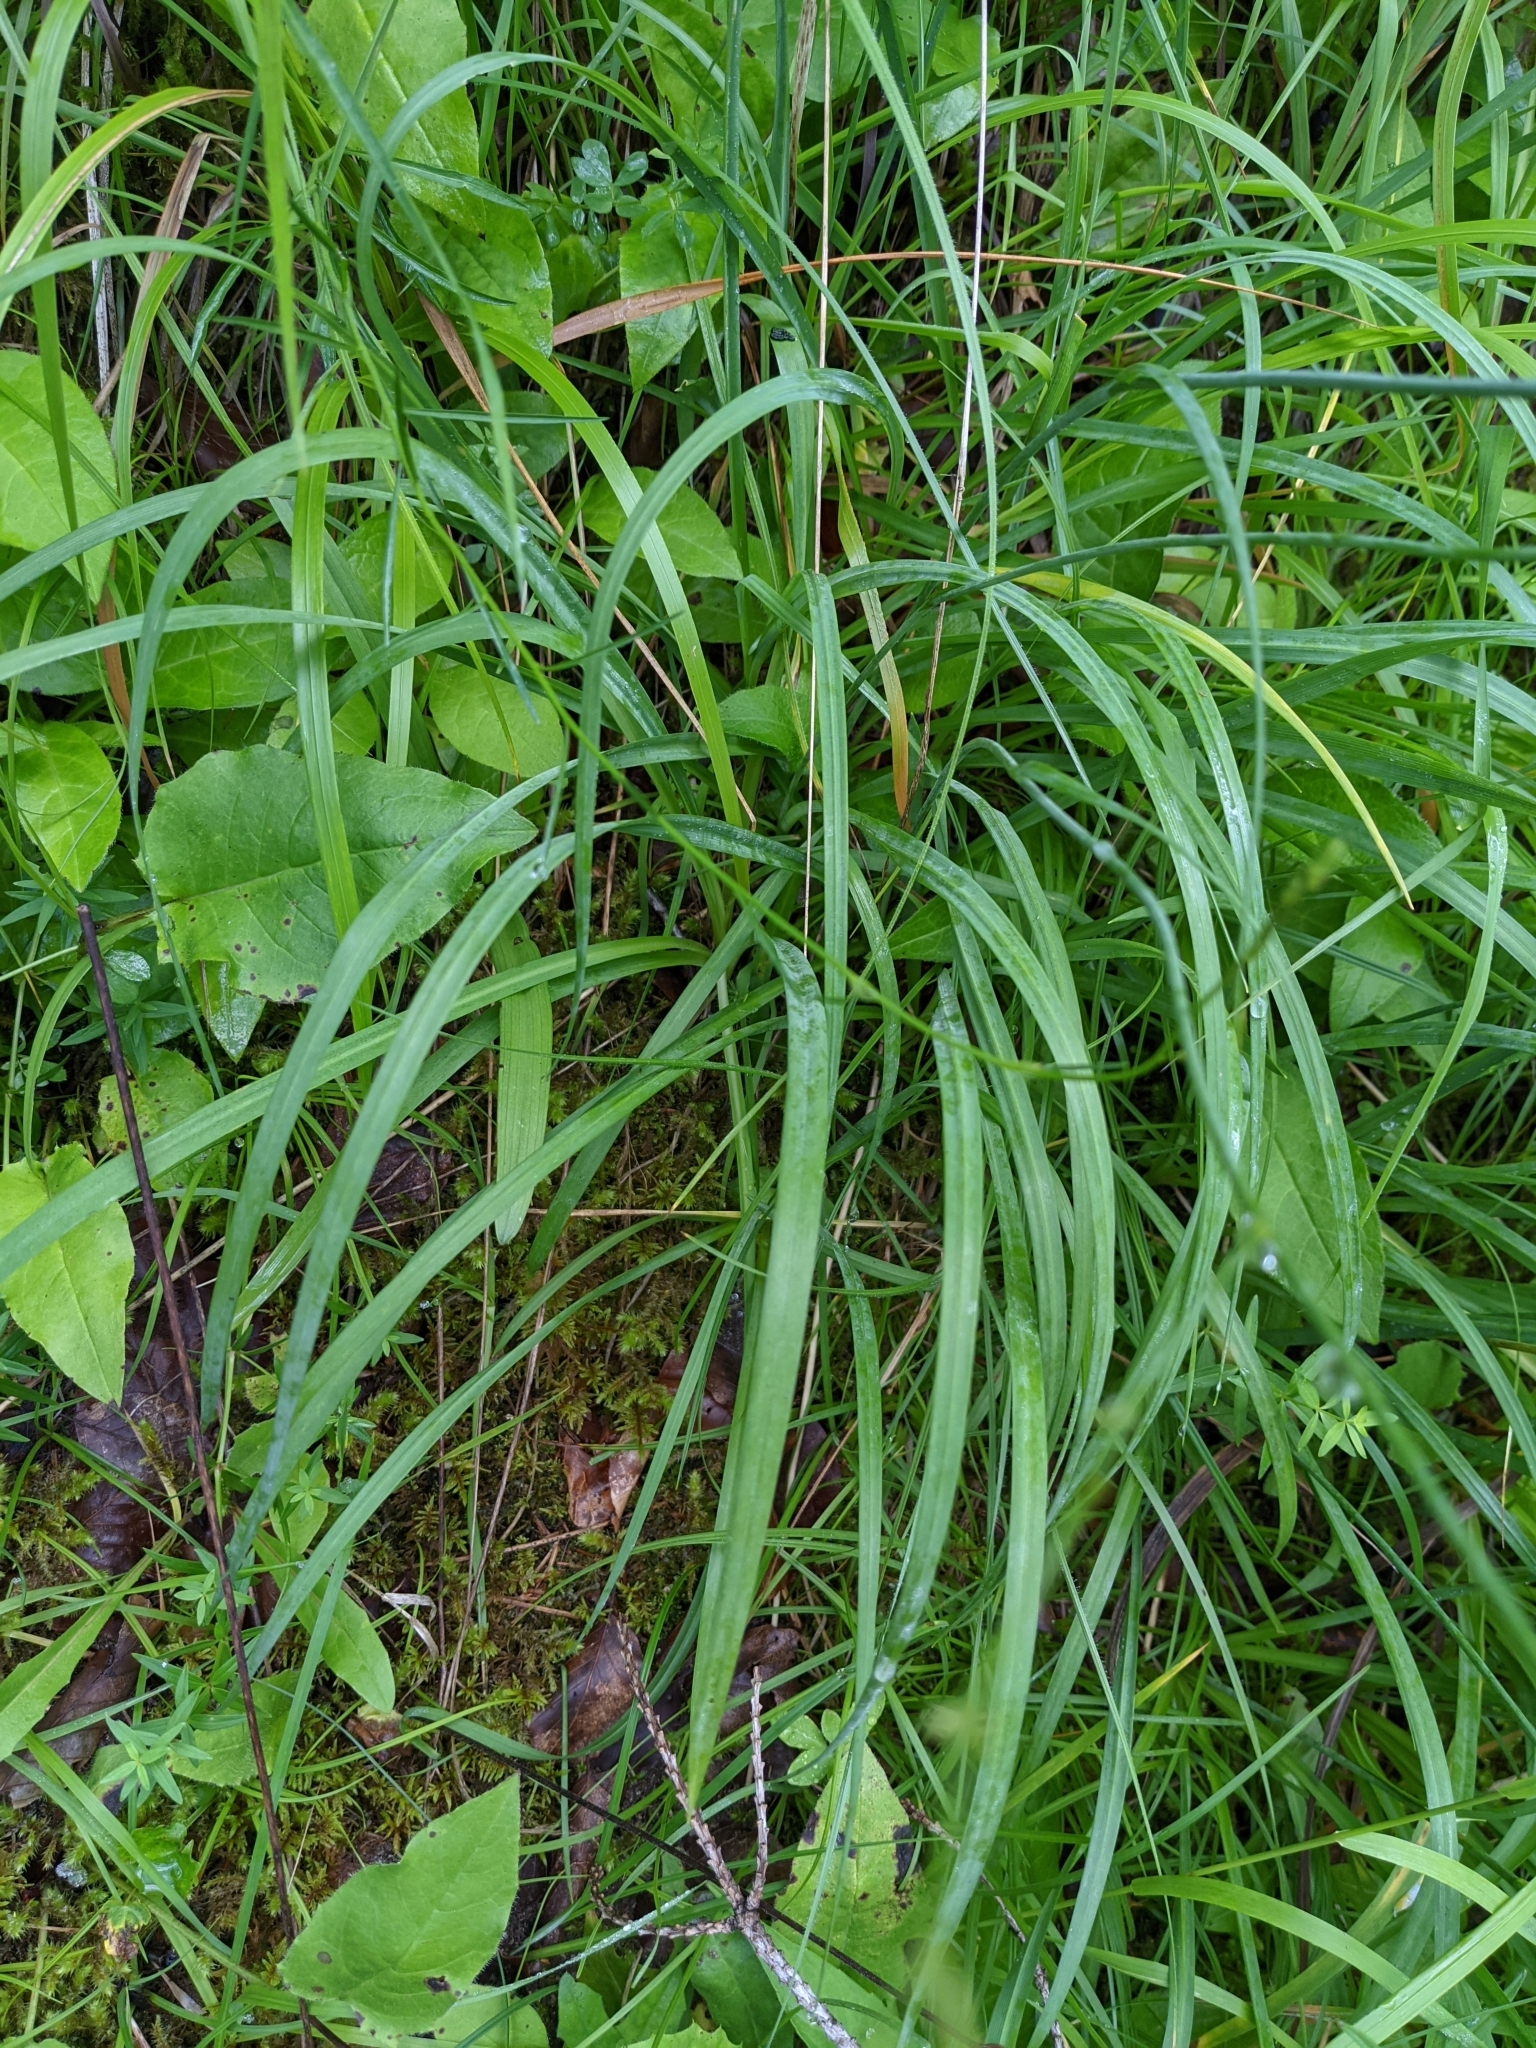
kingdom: Plantae
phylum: Tracheophyta
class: Liliopsida
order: Asparagales
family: Asparagaceae
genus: Anthericum
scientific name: Anthericum ramosum
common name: Branched st. bernard's-lily
